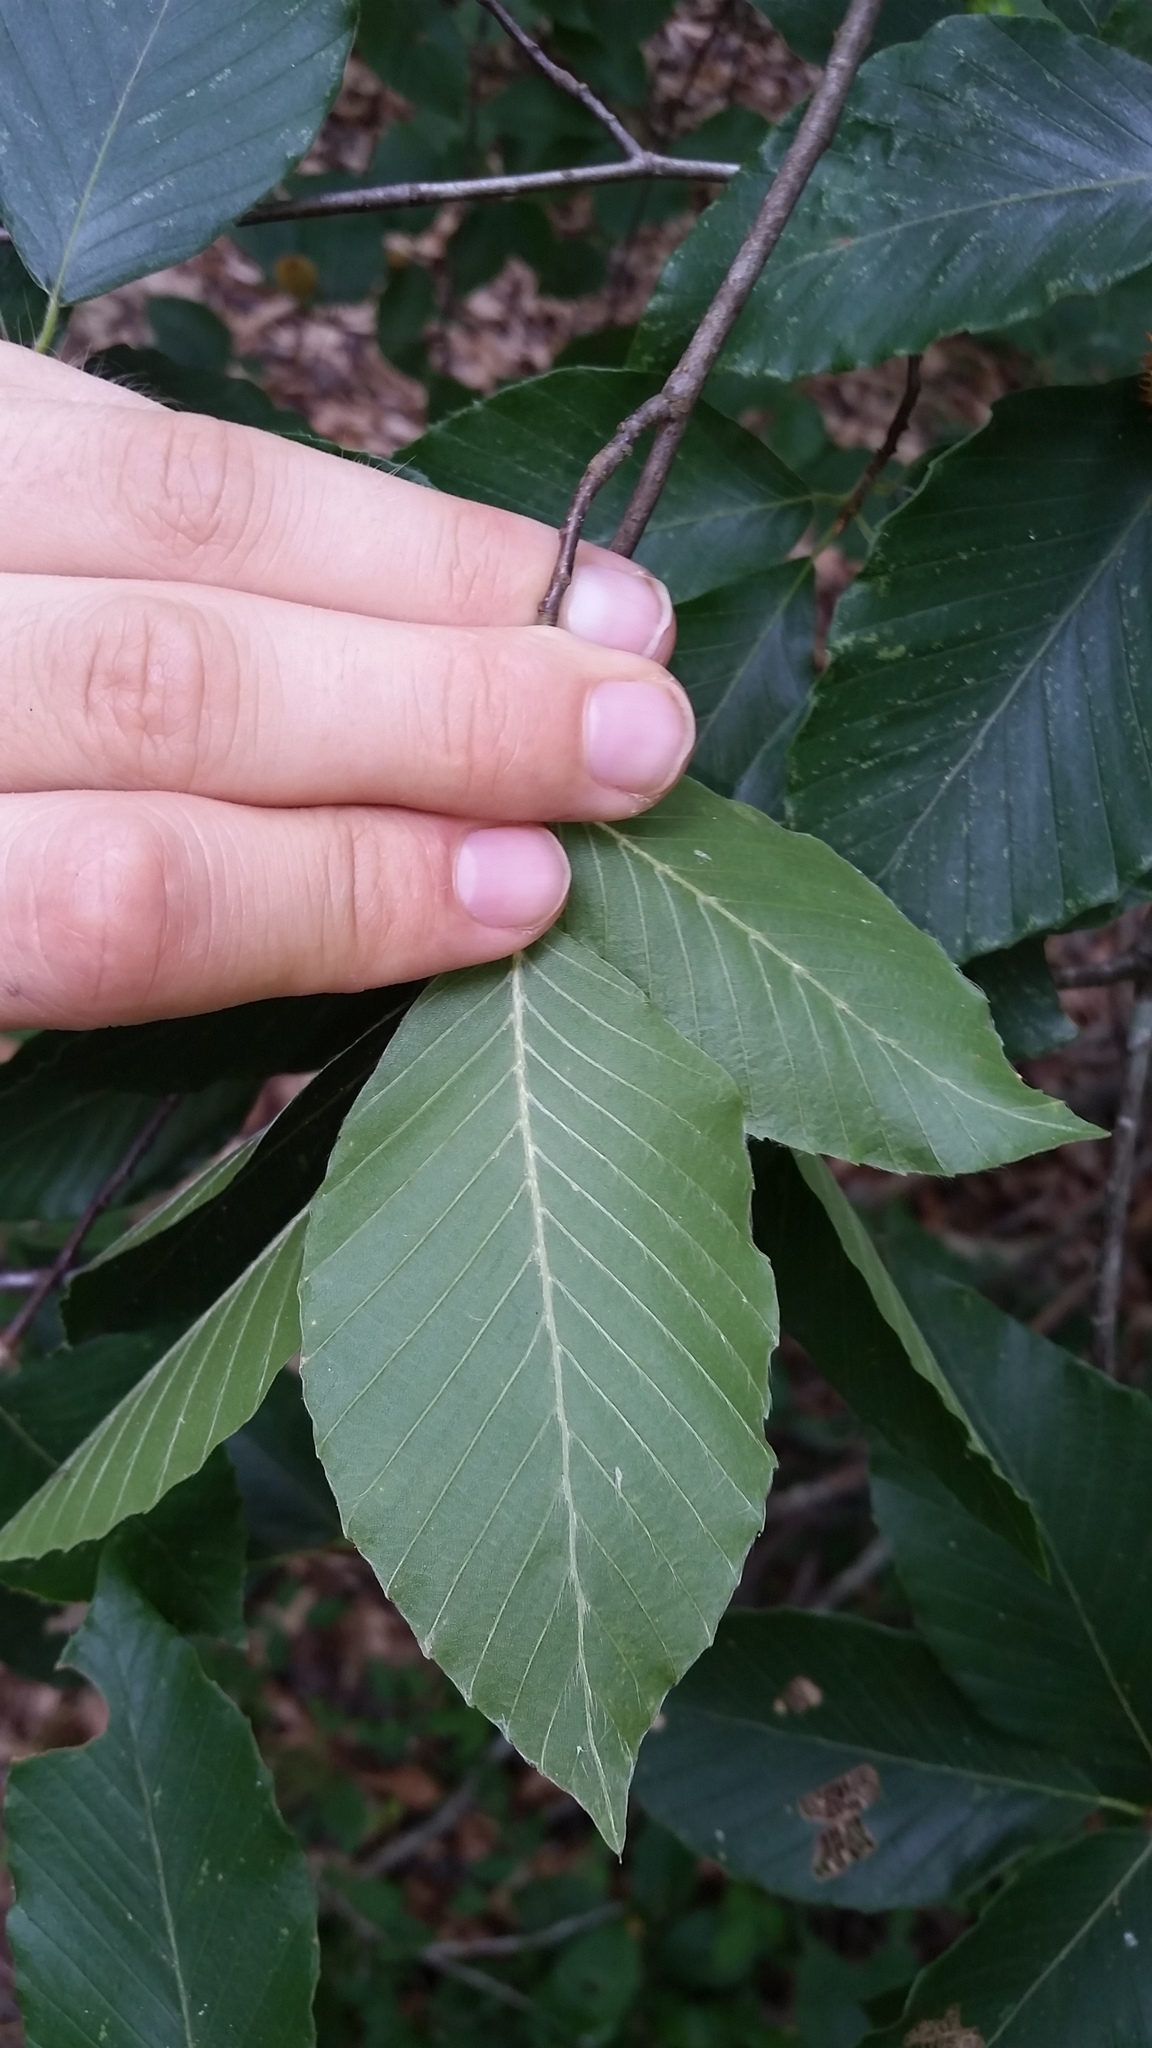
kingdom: Plantae
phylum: Tracheophyta
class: Magnoliopsida
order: Fagales
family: Fagaceae
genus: Fagus
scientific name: Fagus grandifolia
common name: American beech
